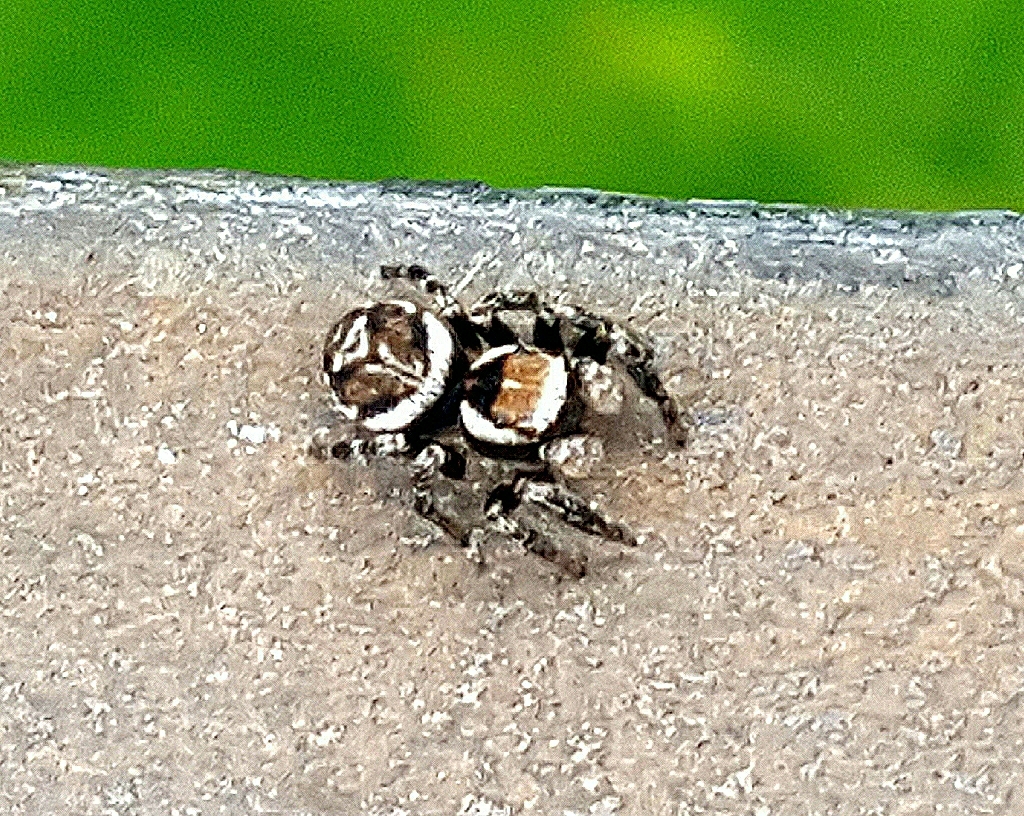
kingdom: Animalia
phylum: Arthropoda
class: Arachnida
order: Araneae
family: Salticidae
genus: Evarcha
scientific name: Evarcha falcata
